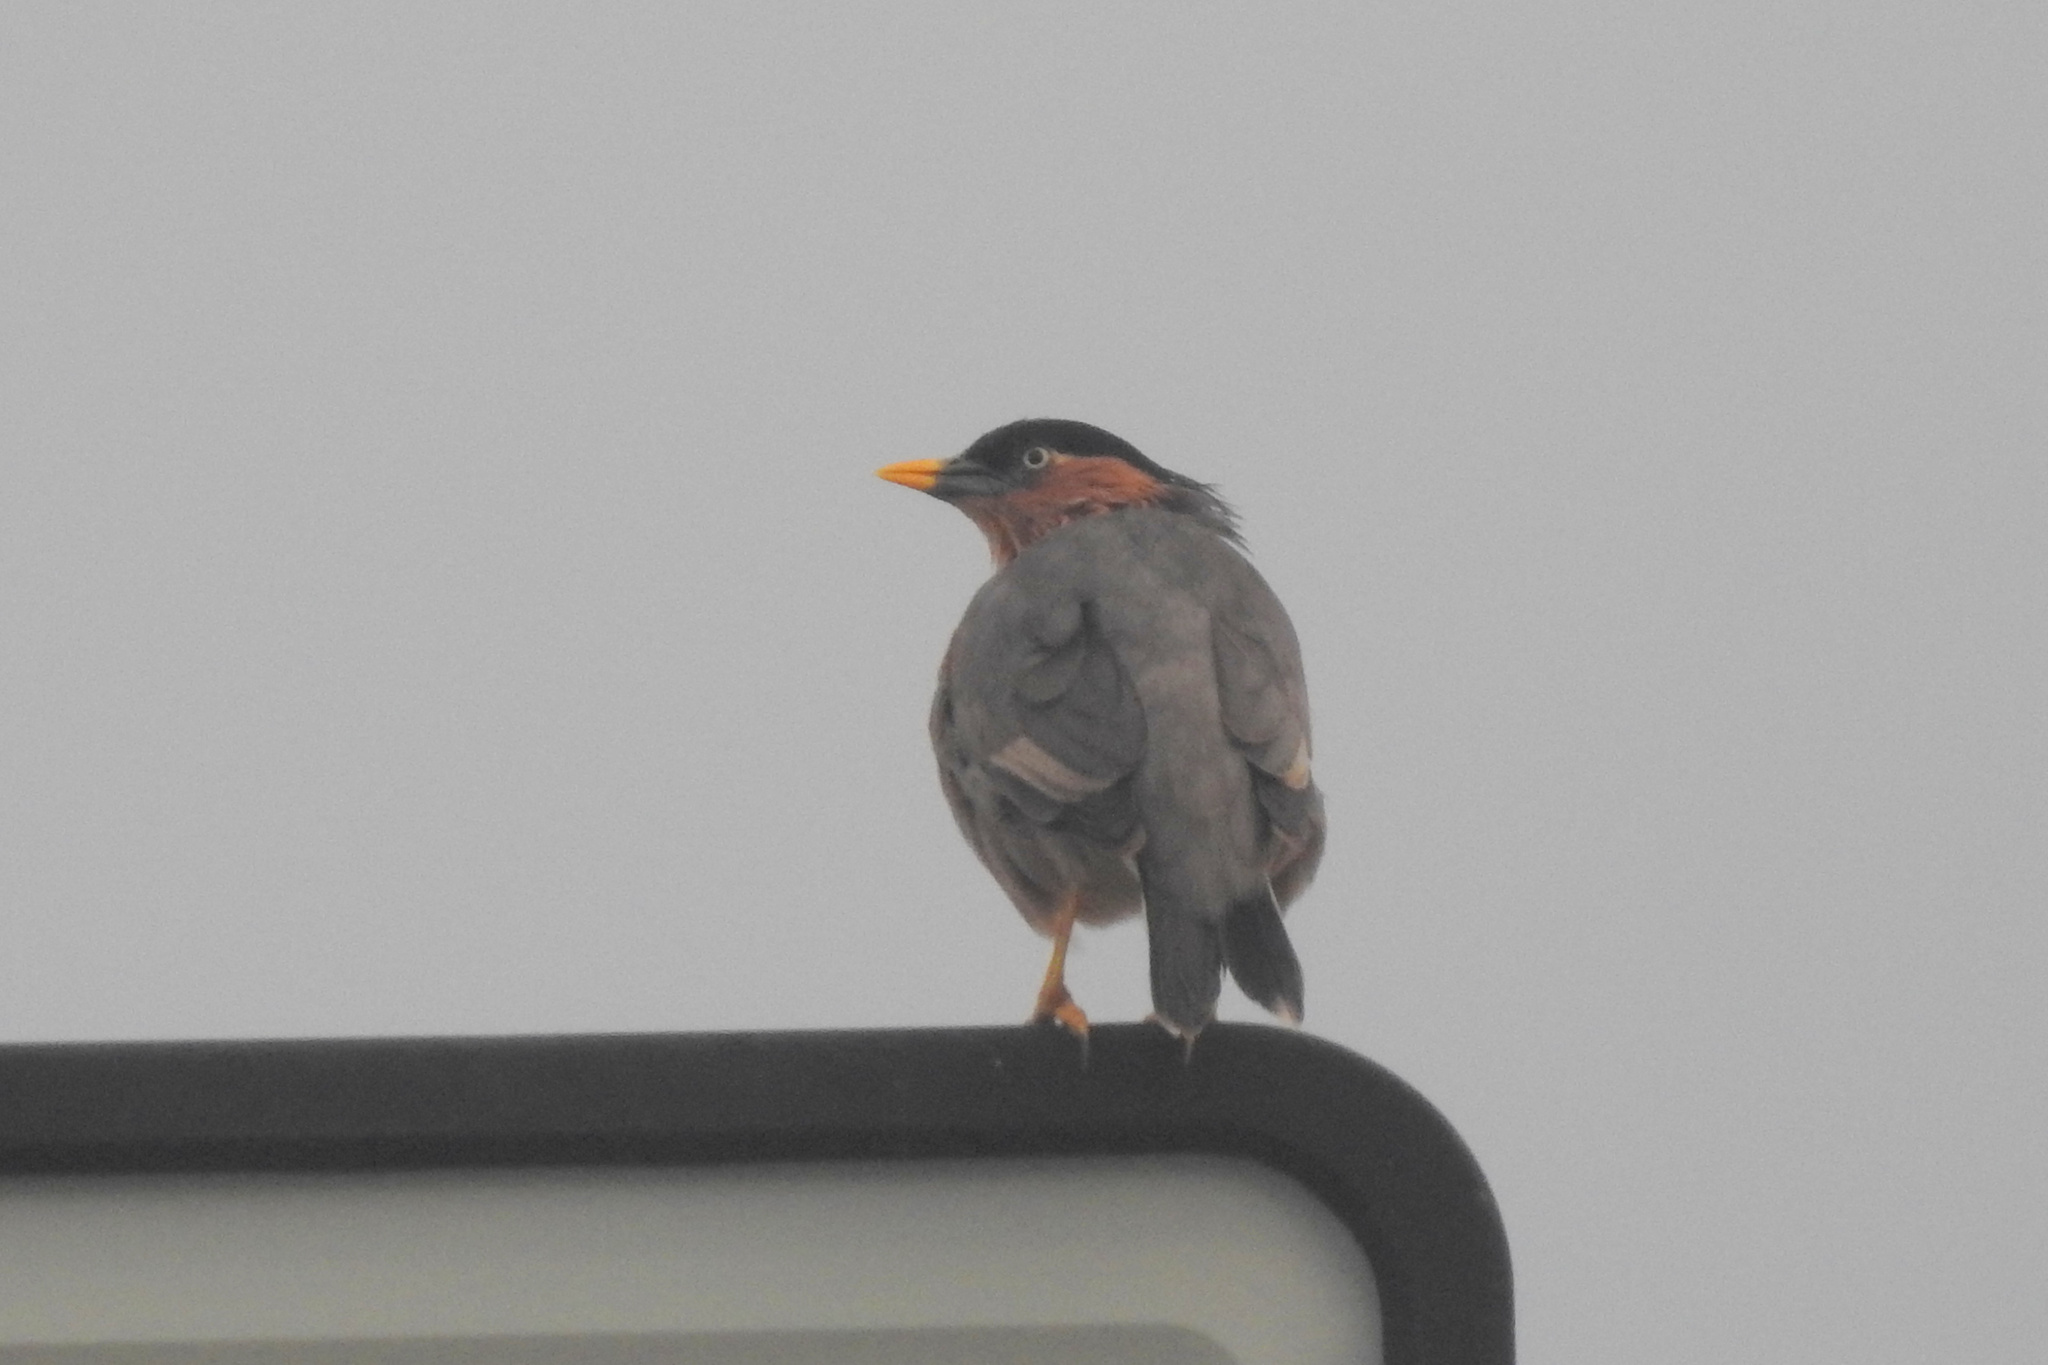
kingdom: Animalia
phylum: Chordata
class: Aves
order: Passeriformes
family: Sturnidae
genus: Sturnia
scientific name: Sturnia pagodarum
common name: Brahminy starling
